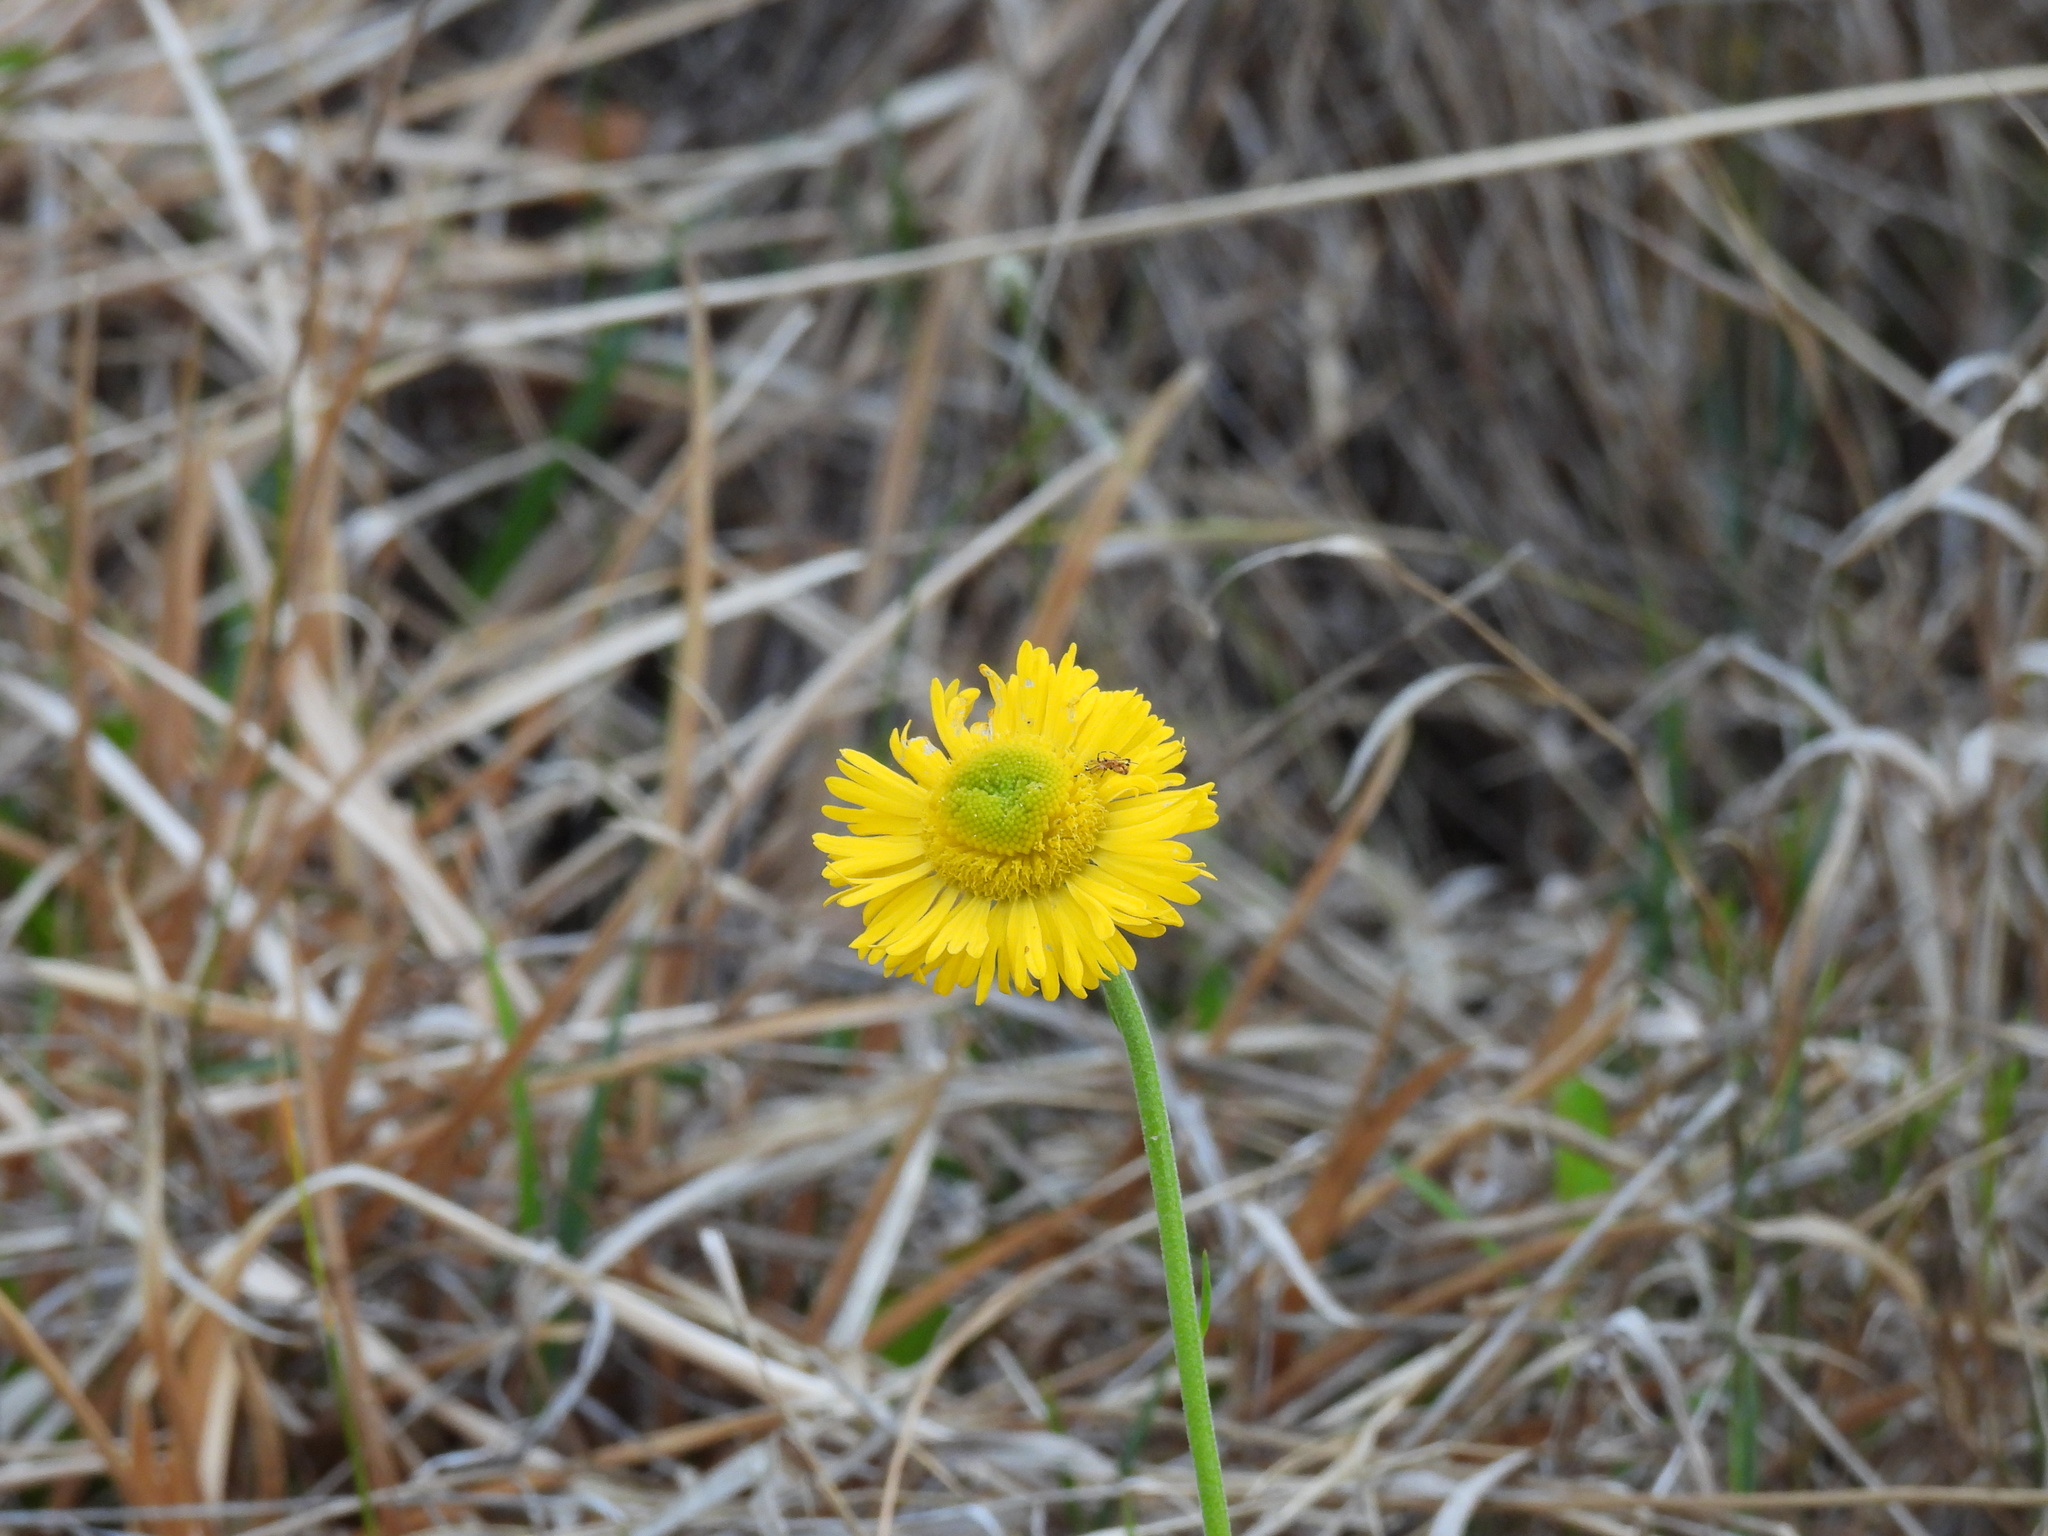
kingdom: Plantae
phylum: Tracheophyta
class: Magnoliopsida
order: Asterales
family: Asteraceae
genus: Helenium
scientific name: Helenium pinnatifidum
